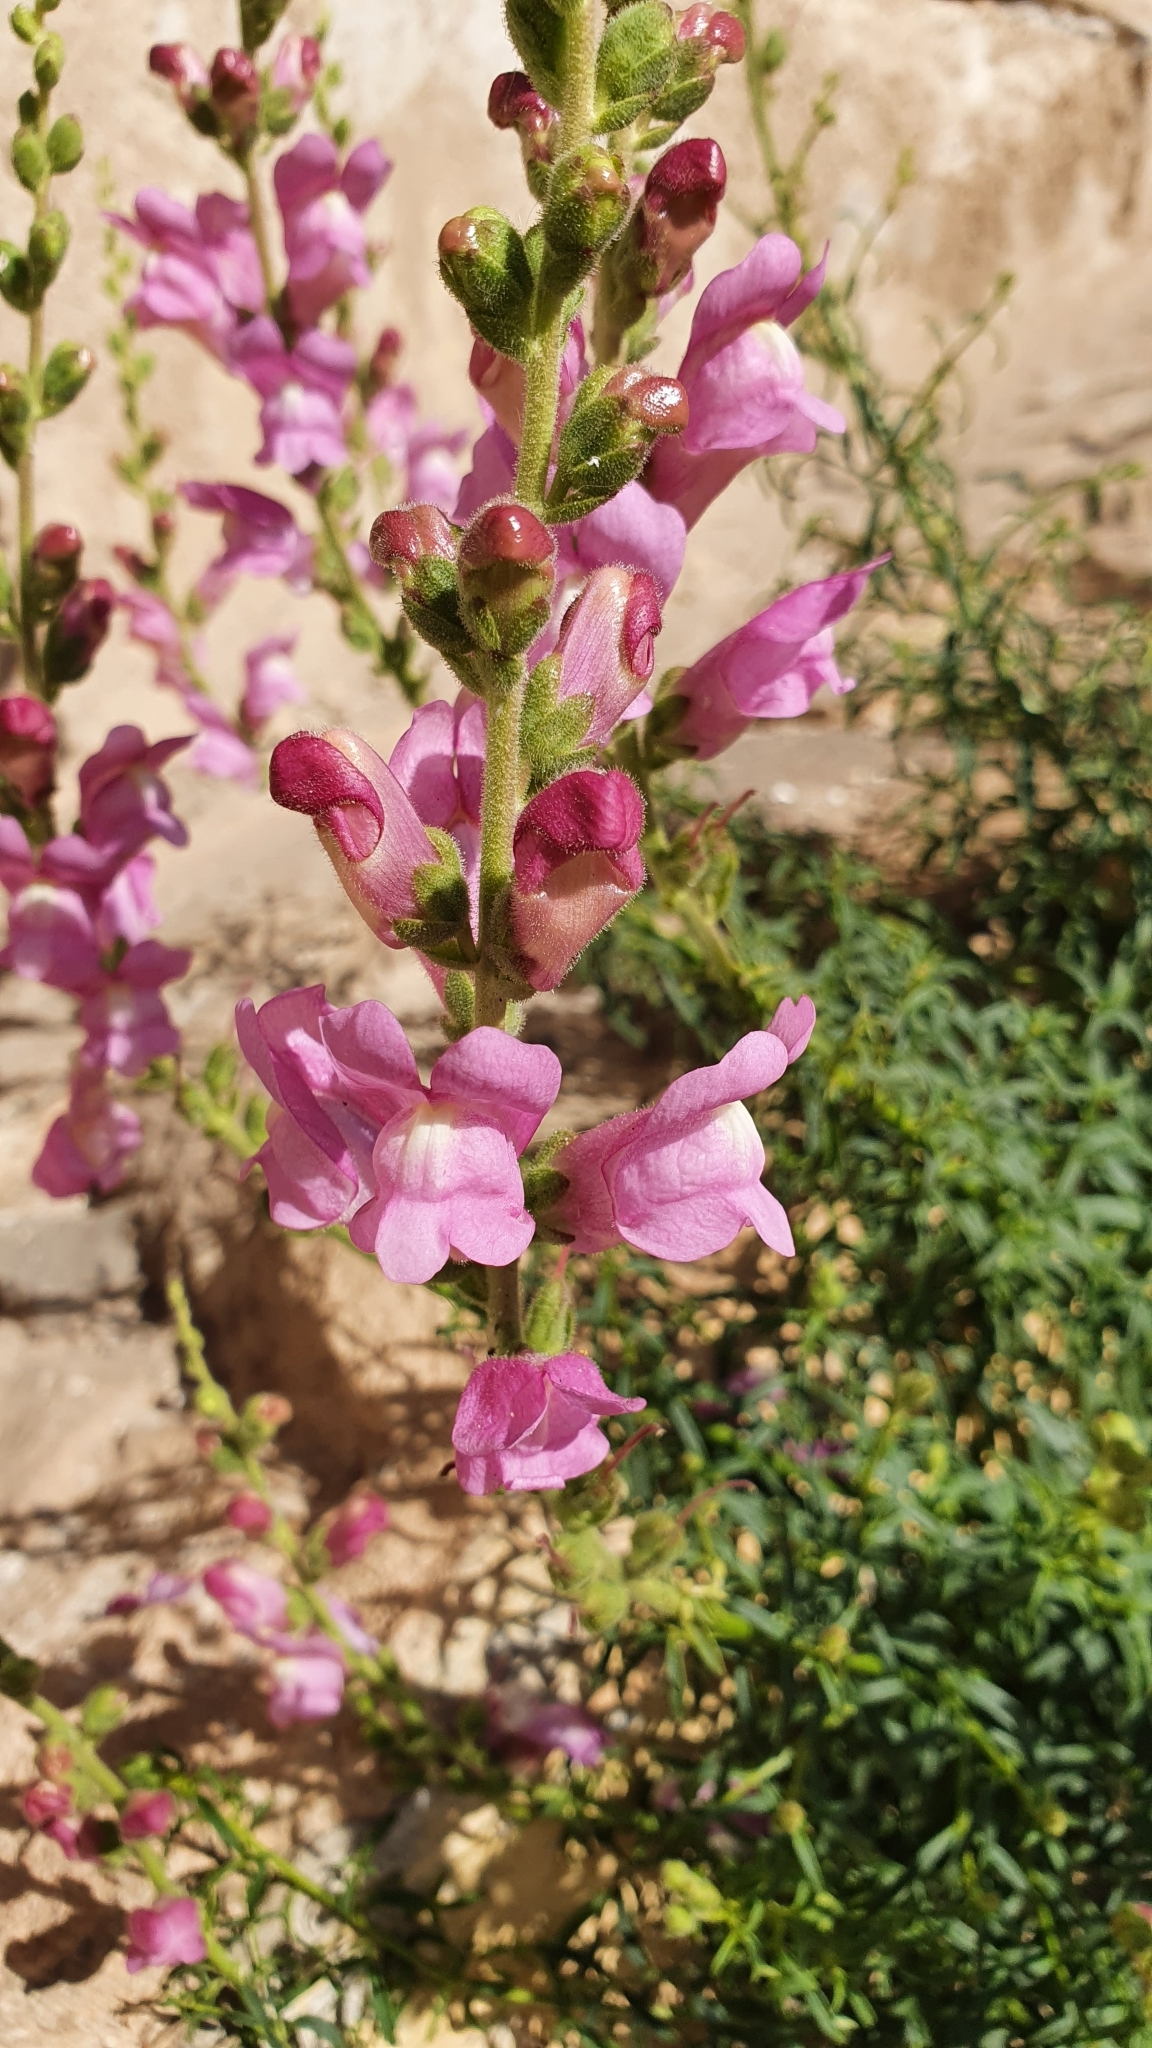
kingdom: Plantae
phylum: Tracheophyta
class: Magnoliopsida
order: Lamiales
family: Plantaginaceae
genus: Antirrhinum
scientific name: Antirrhinum tortuosum
